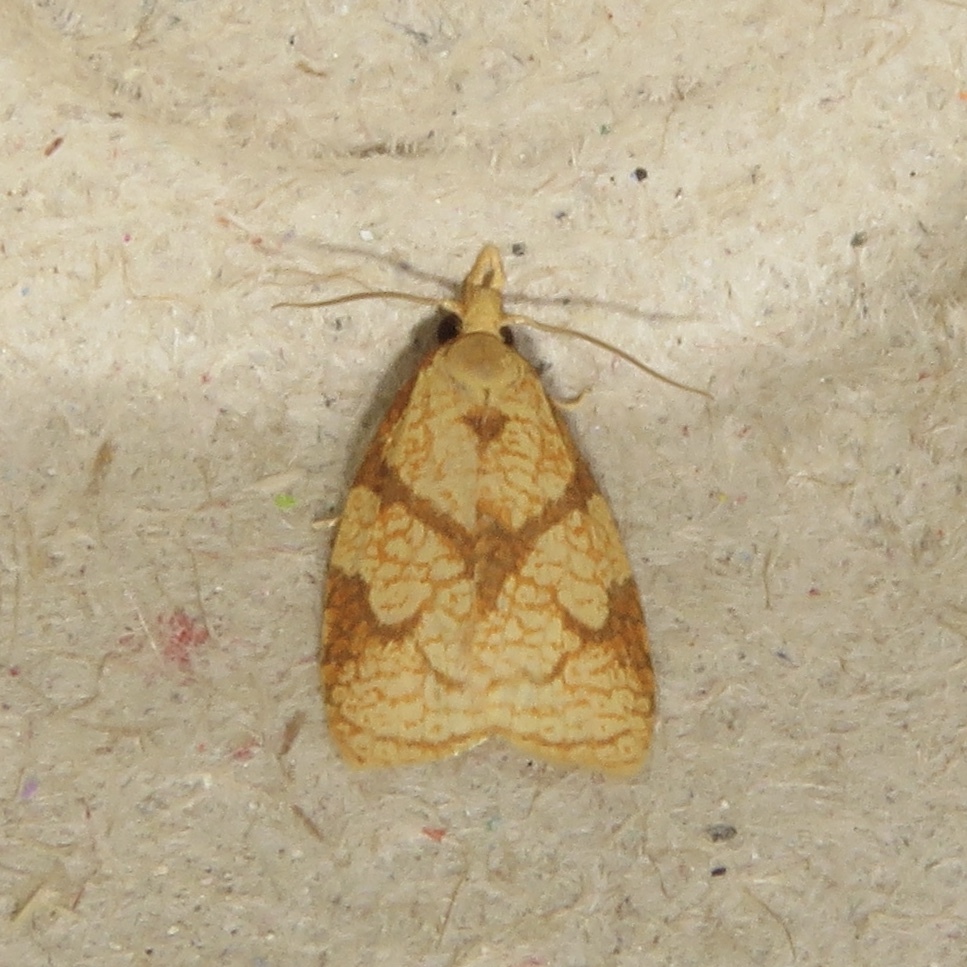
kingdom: Animalia
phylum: Arthropoda
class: Insecta
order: Lepidoptera
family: Tortricidae
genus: Cenopis
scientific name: Cenopis reticulatana
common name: Reticulated fruitworm moth
